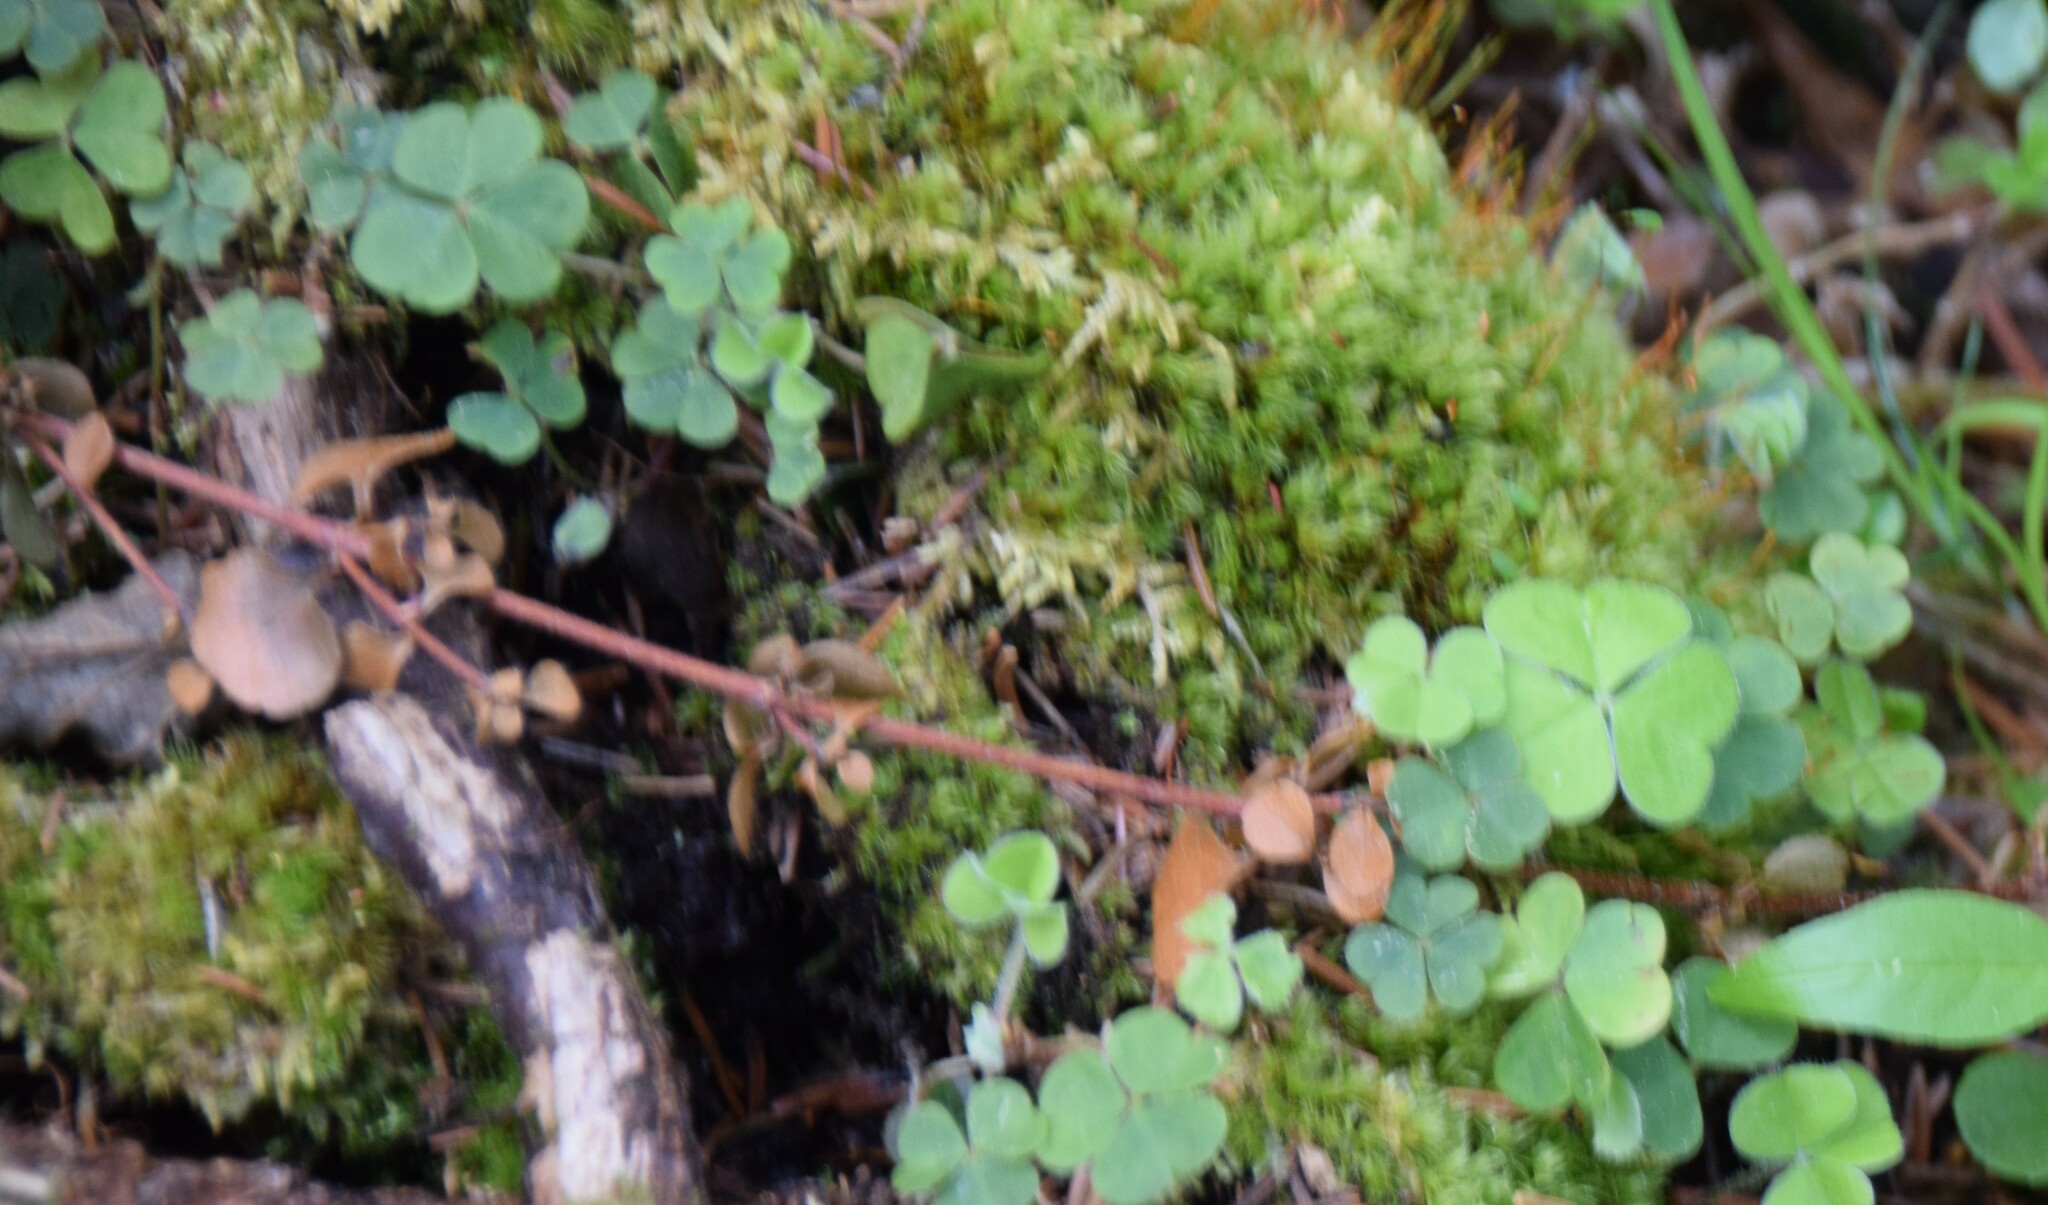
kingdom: Plantae
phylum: Tracheophyta
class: Magnoliopsida
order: Oxalidales
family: Oxalidaceae
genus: Oxalis
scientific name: Oxalis montana
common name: American wood-sorrel
